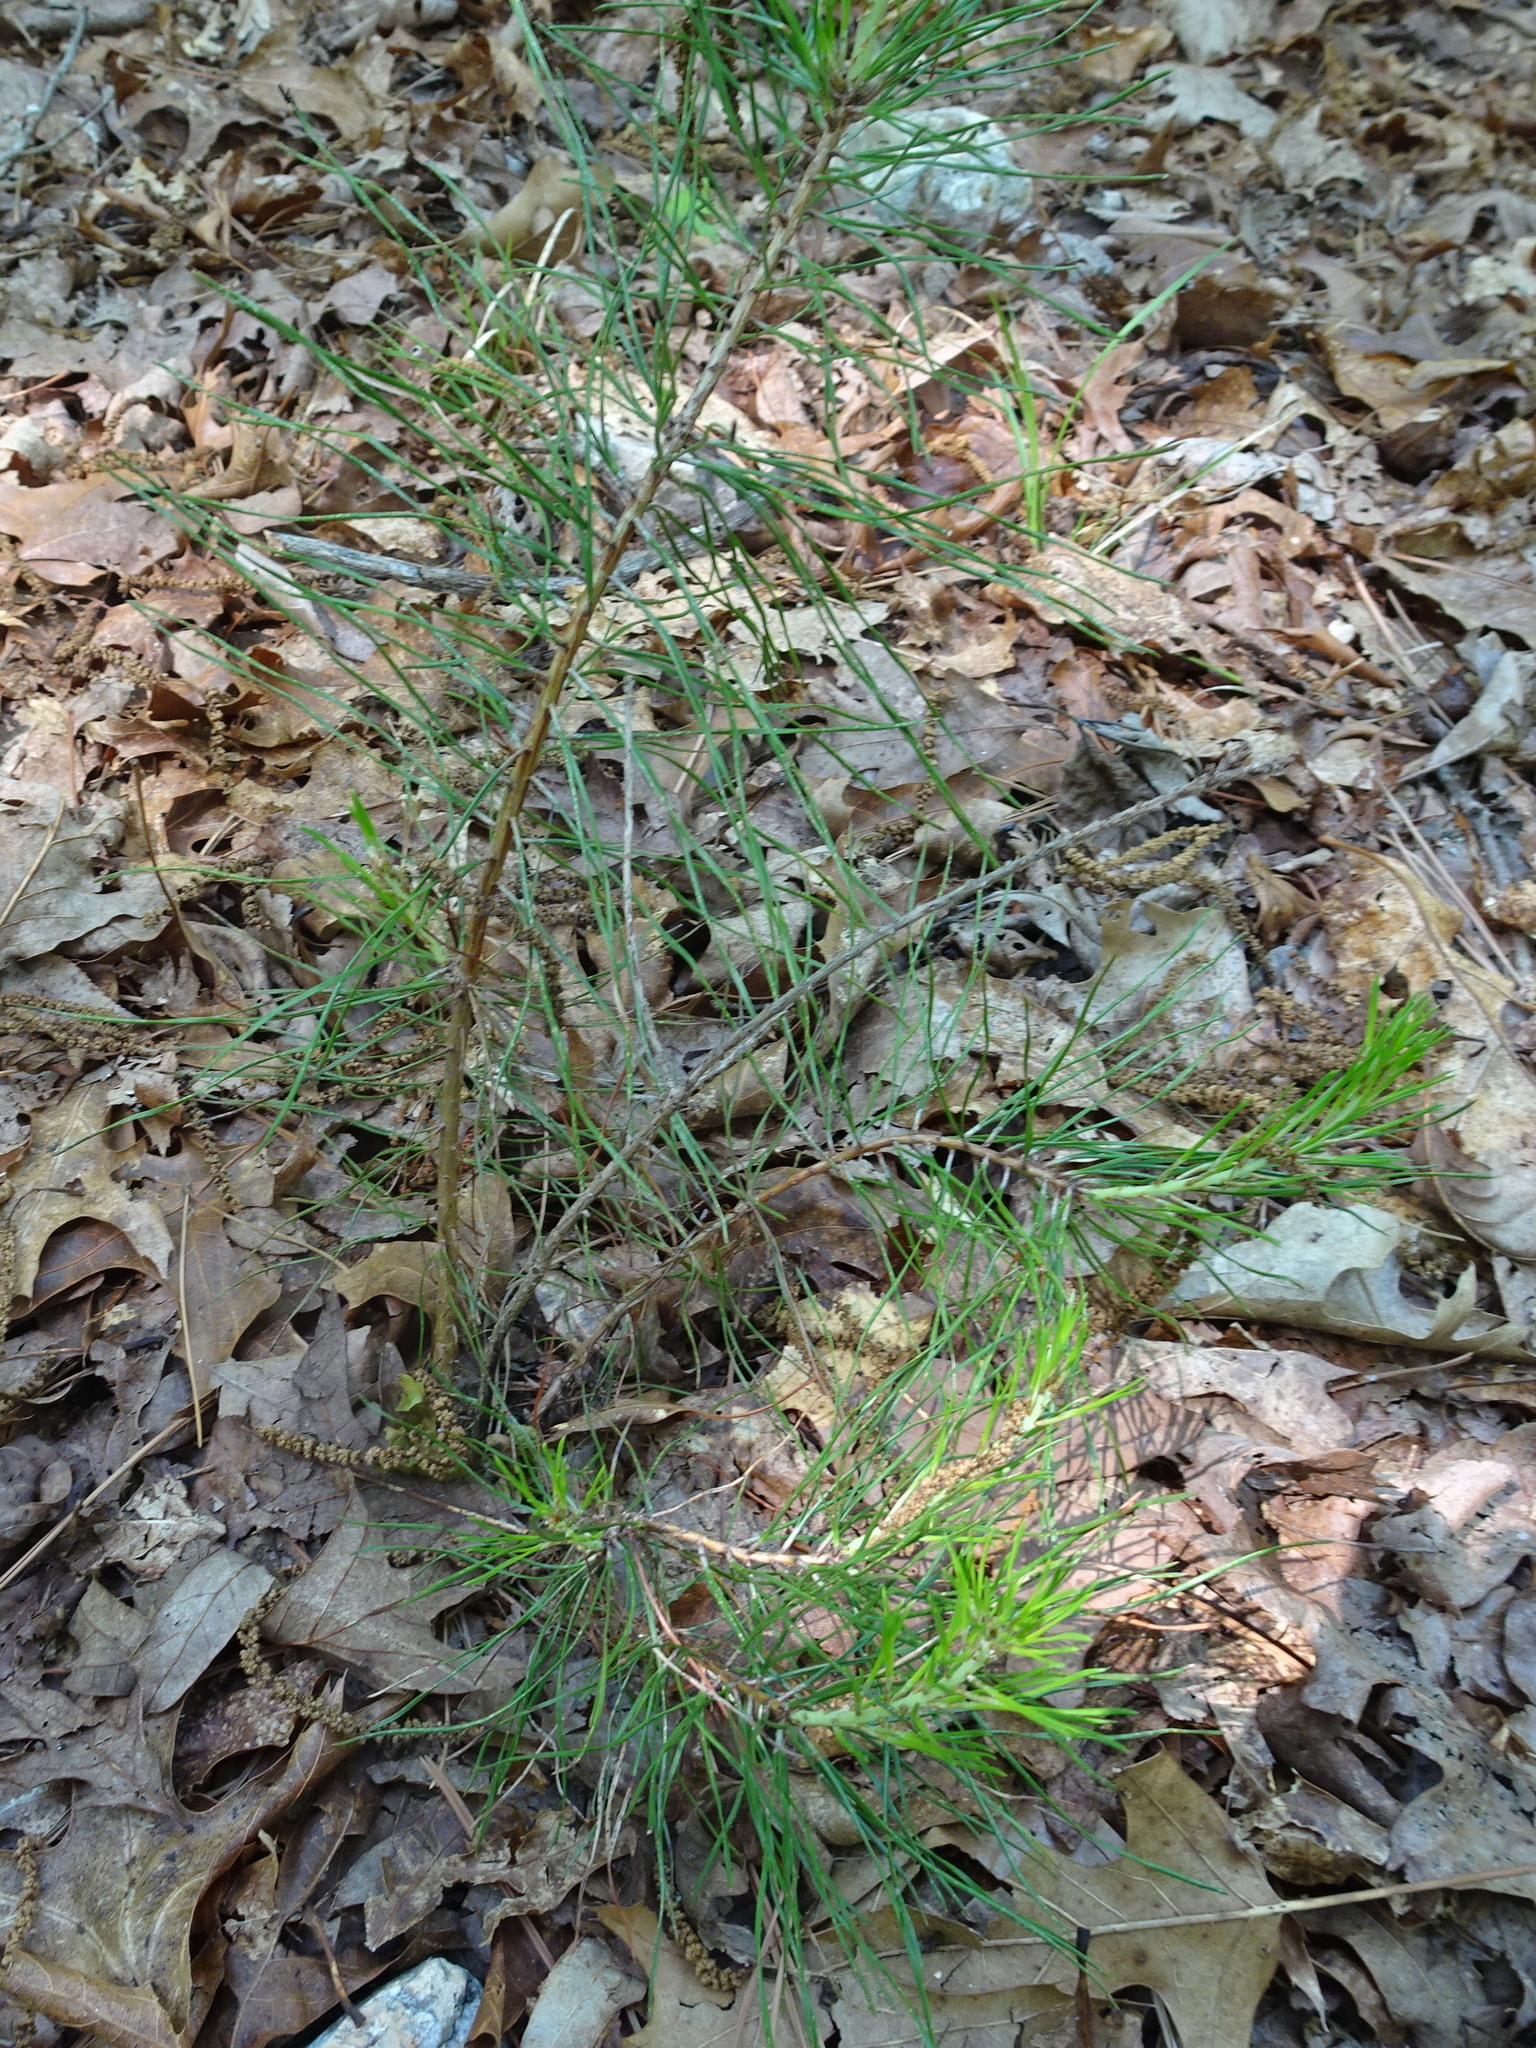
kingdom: Plantae
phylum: Tracheophyta
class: Pinopsida
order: Pinales
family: Pinaceae
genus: Pinus
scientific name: Pinus echinata
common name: Shortleaf pine
